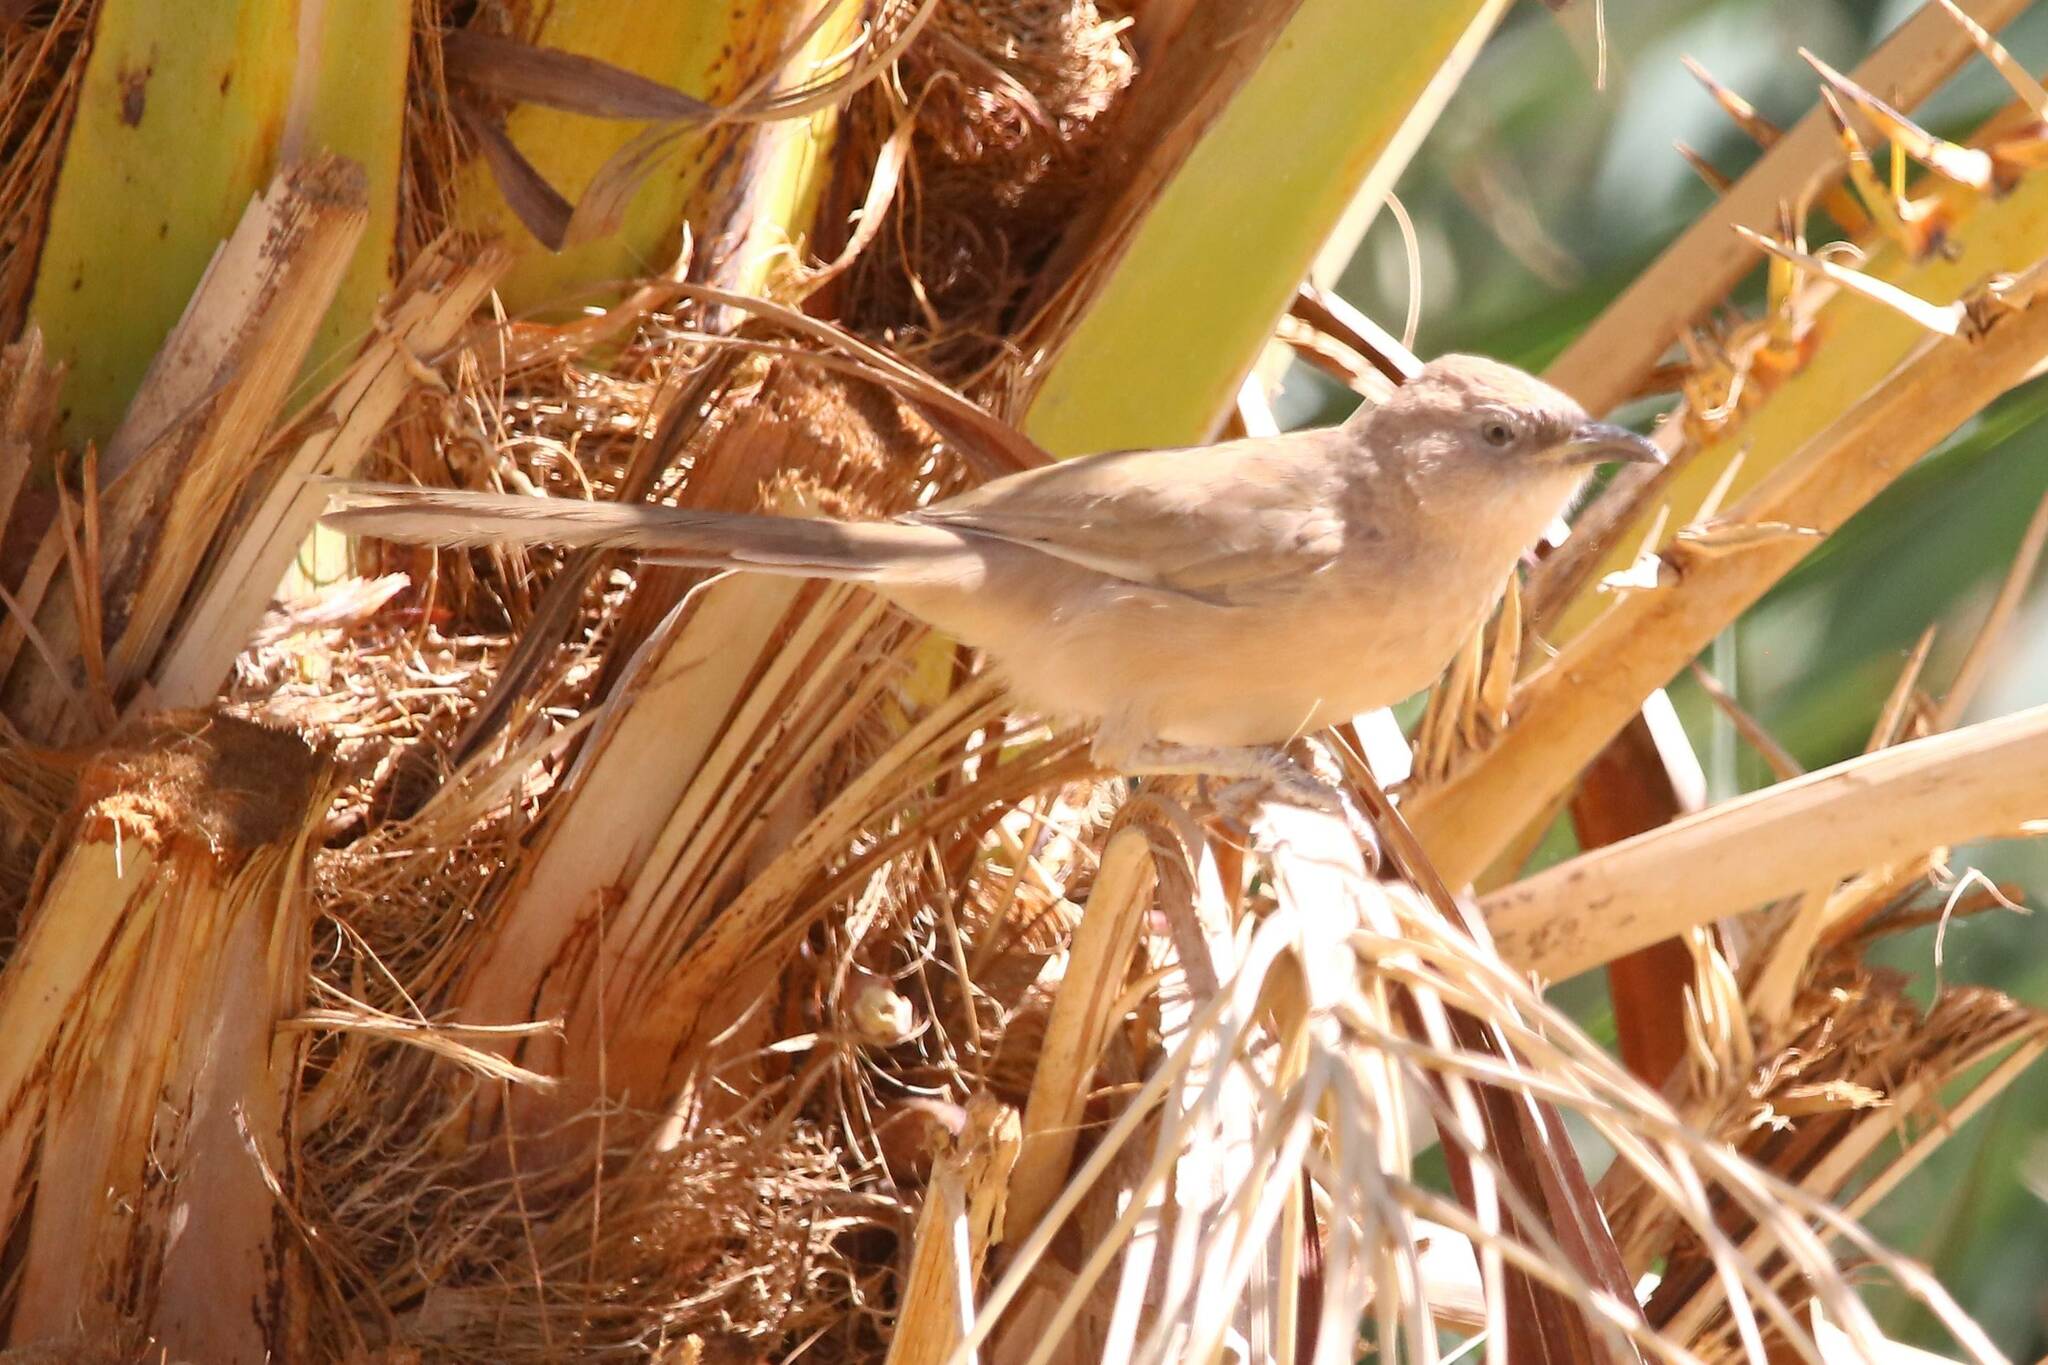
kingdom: Animalia
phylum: Chordata
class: Aves
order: Passeriformes
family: Leiothrichidae
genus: Turdoides
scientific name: Turdoides fulva
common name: Fulvous babbler
